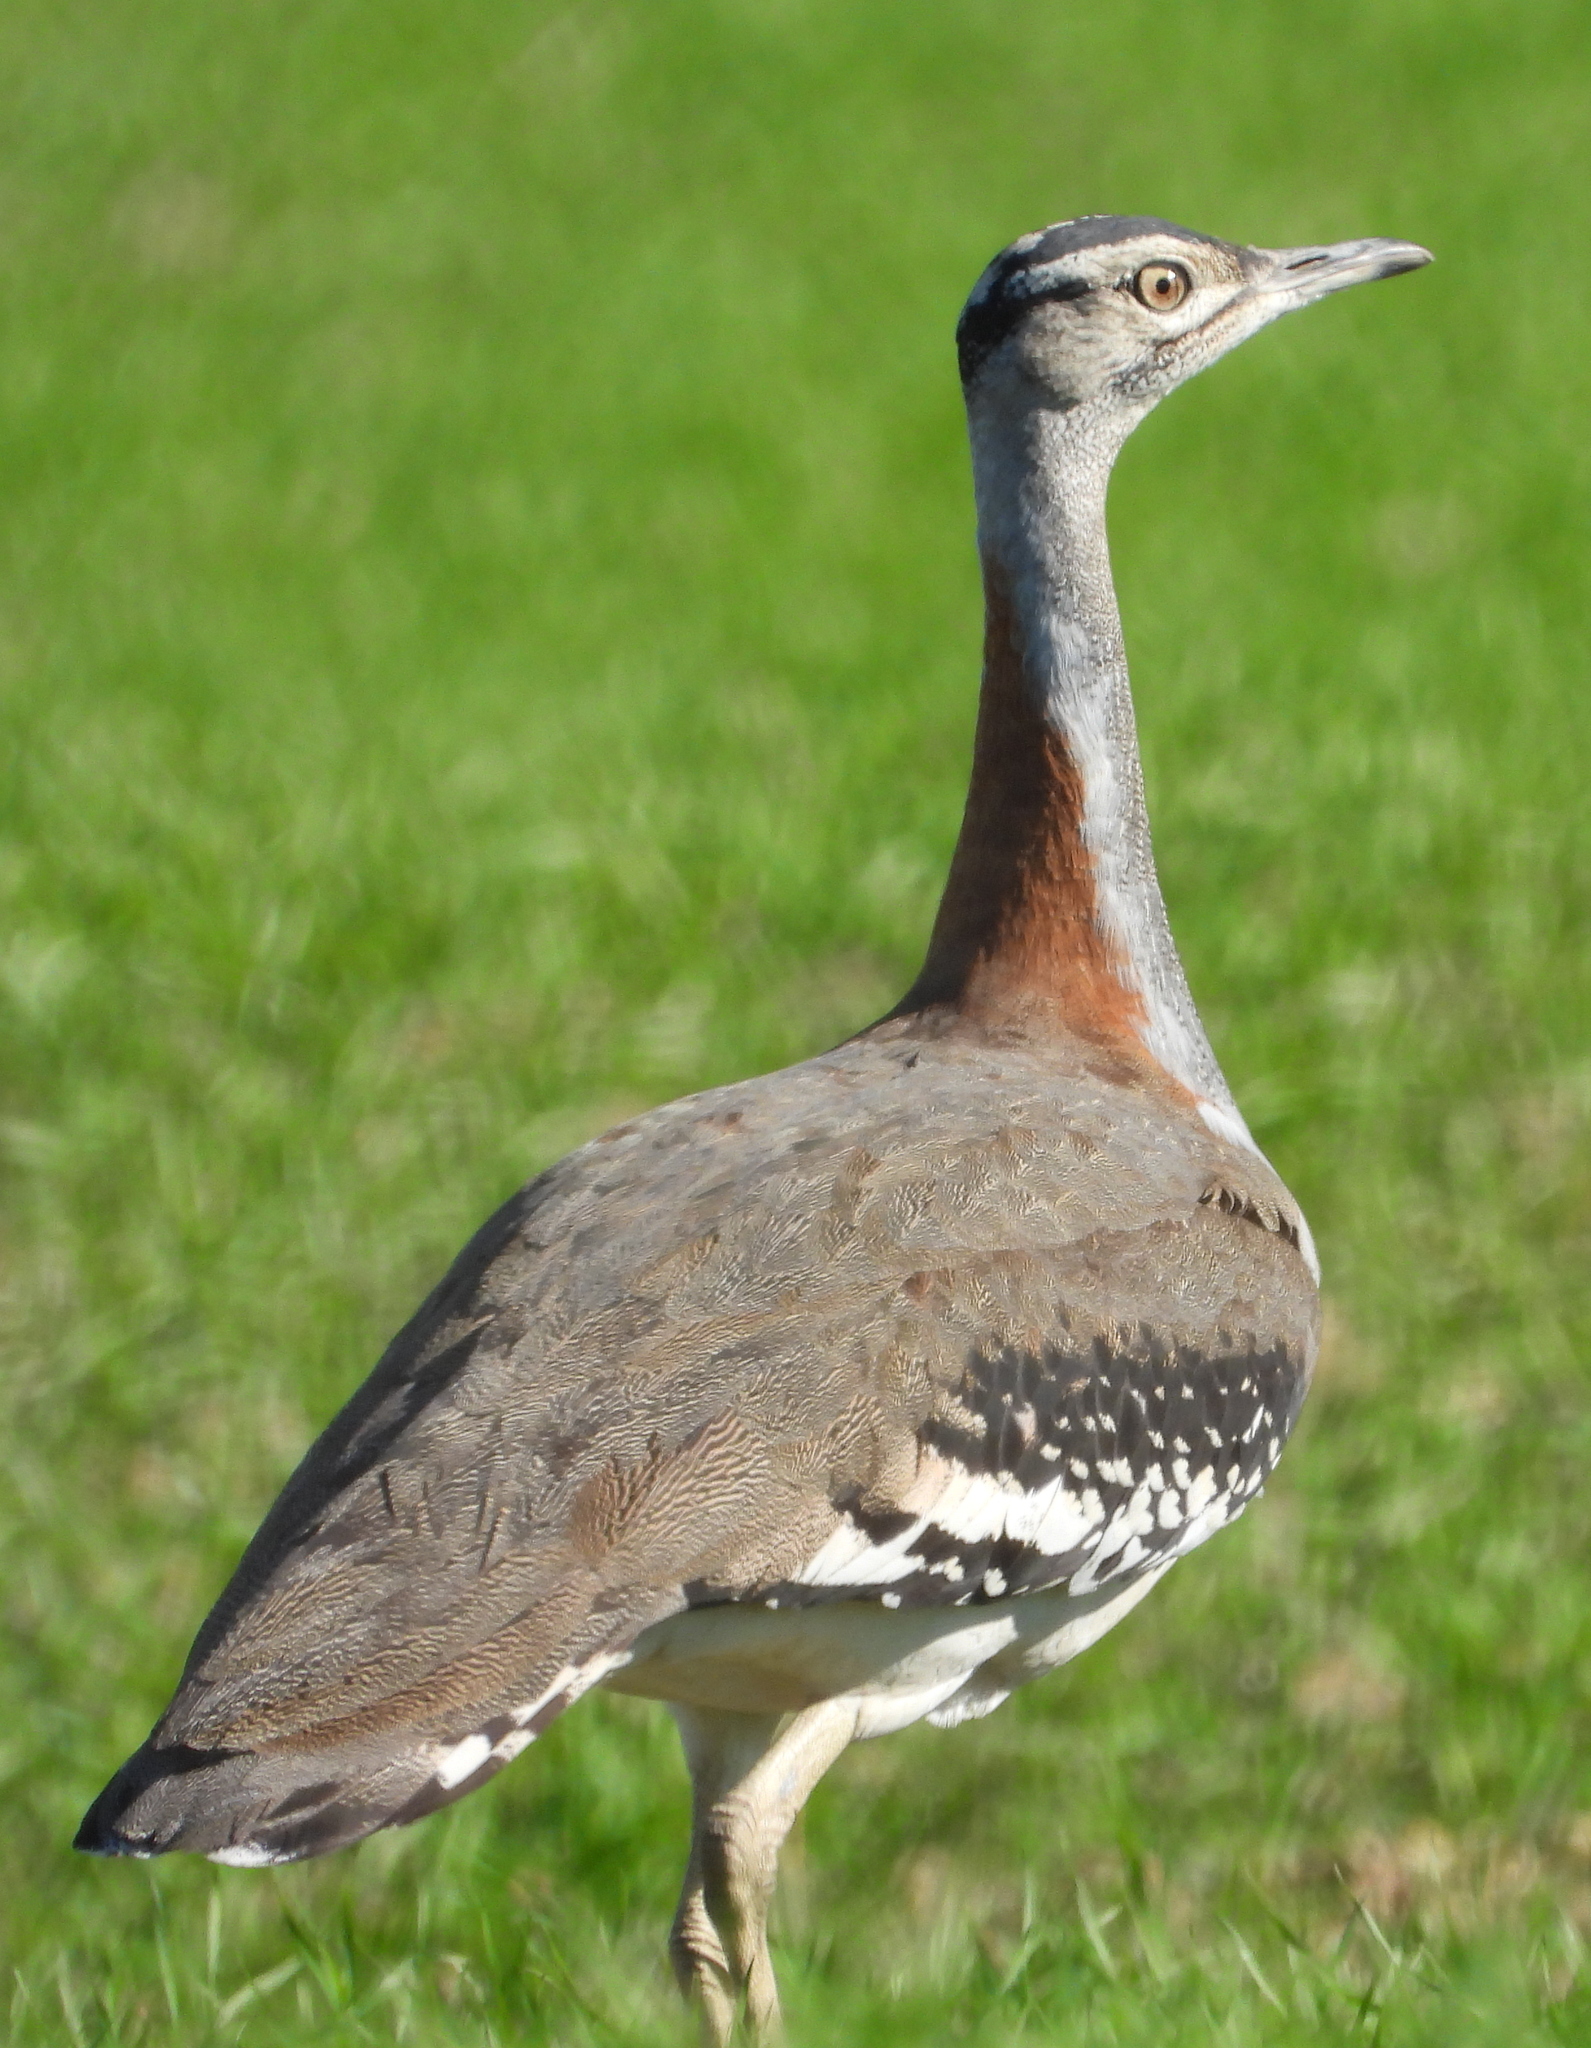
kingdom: Animalia
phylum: Chordata
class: Aves
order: Otidiformes
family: Otididae
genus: Neotis
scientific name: Neotis denhami
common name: Denham's bustard
